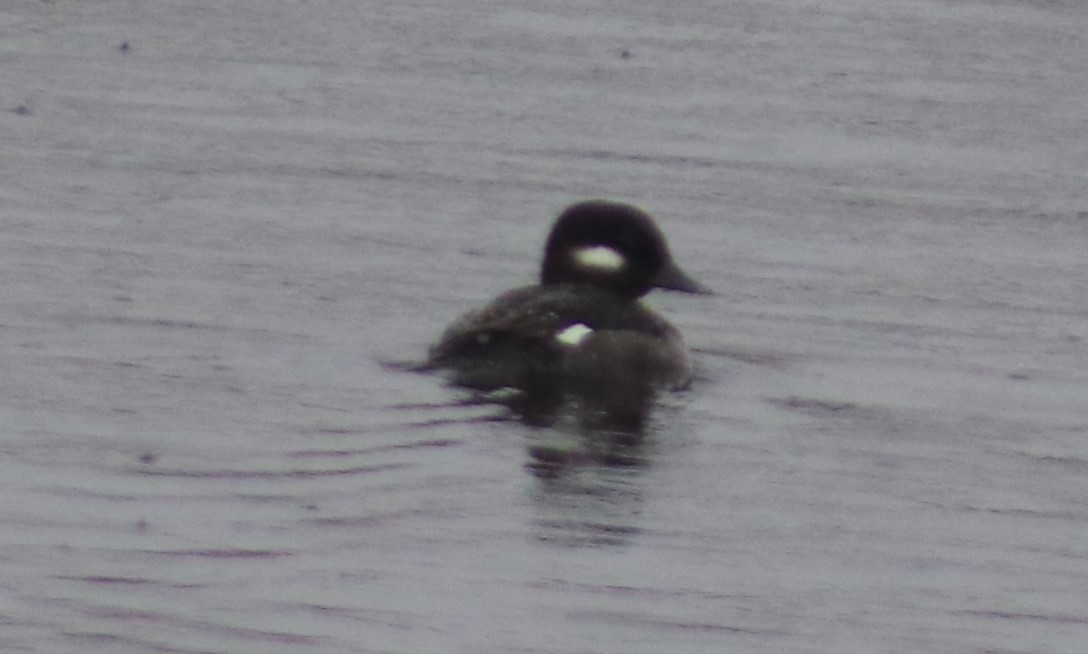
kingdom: Animalia
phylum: Chordata
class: Aves
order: Anseriformes
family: Anatidae
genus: Bucephala
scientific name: Bucephala albeola
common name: Bufflehead
